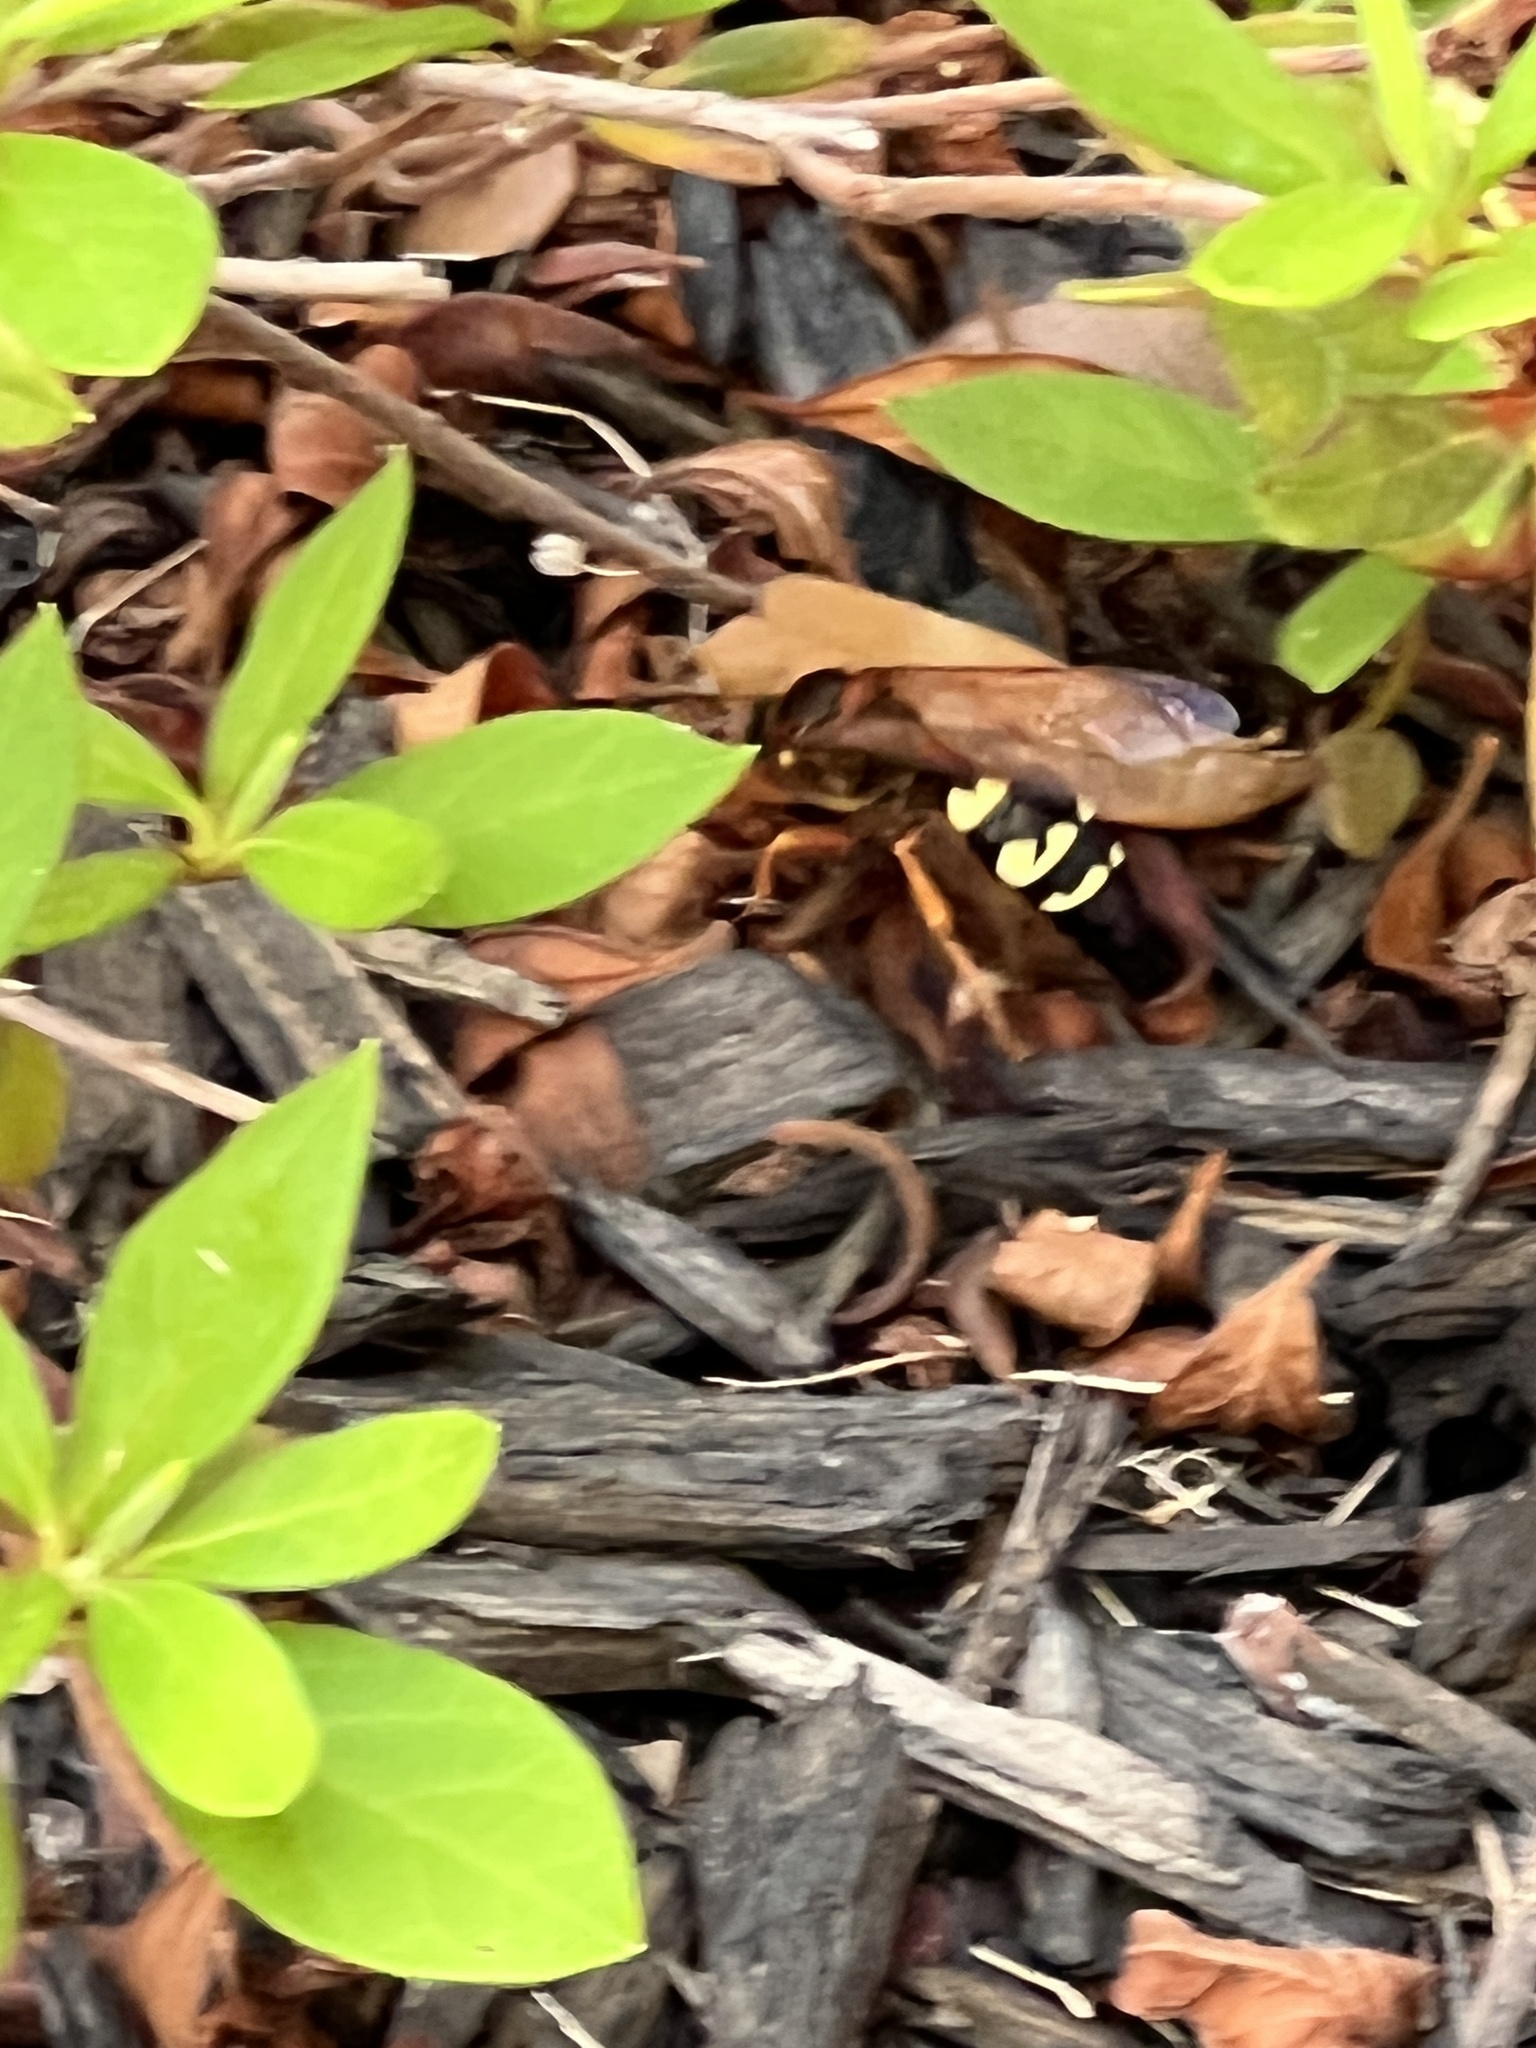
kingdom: Animalia
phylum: Arthropoda
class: Insecta
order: Hymenoptera
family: Crabronidae
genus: Sphecius
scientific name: Sphecius speciosus
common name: Cicada killer
